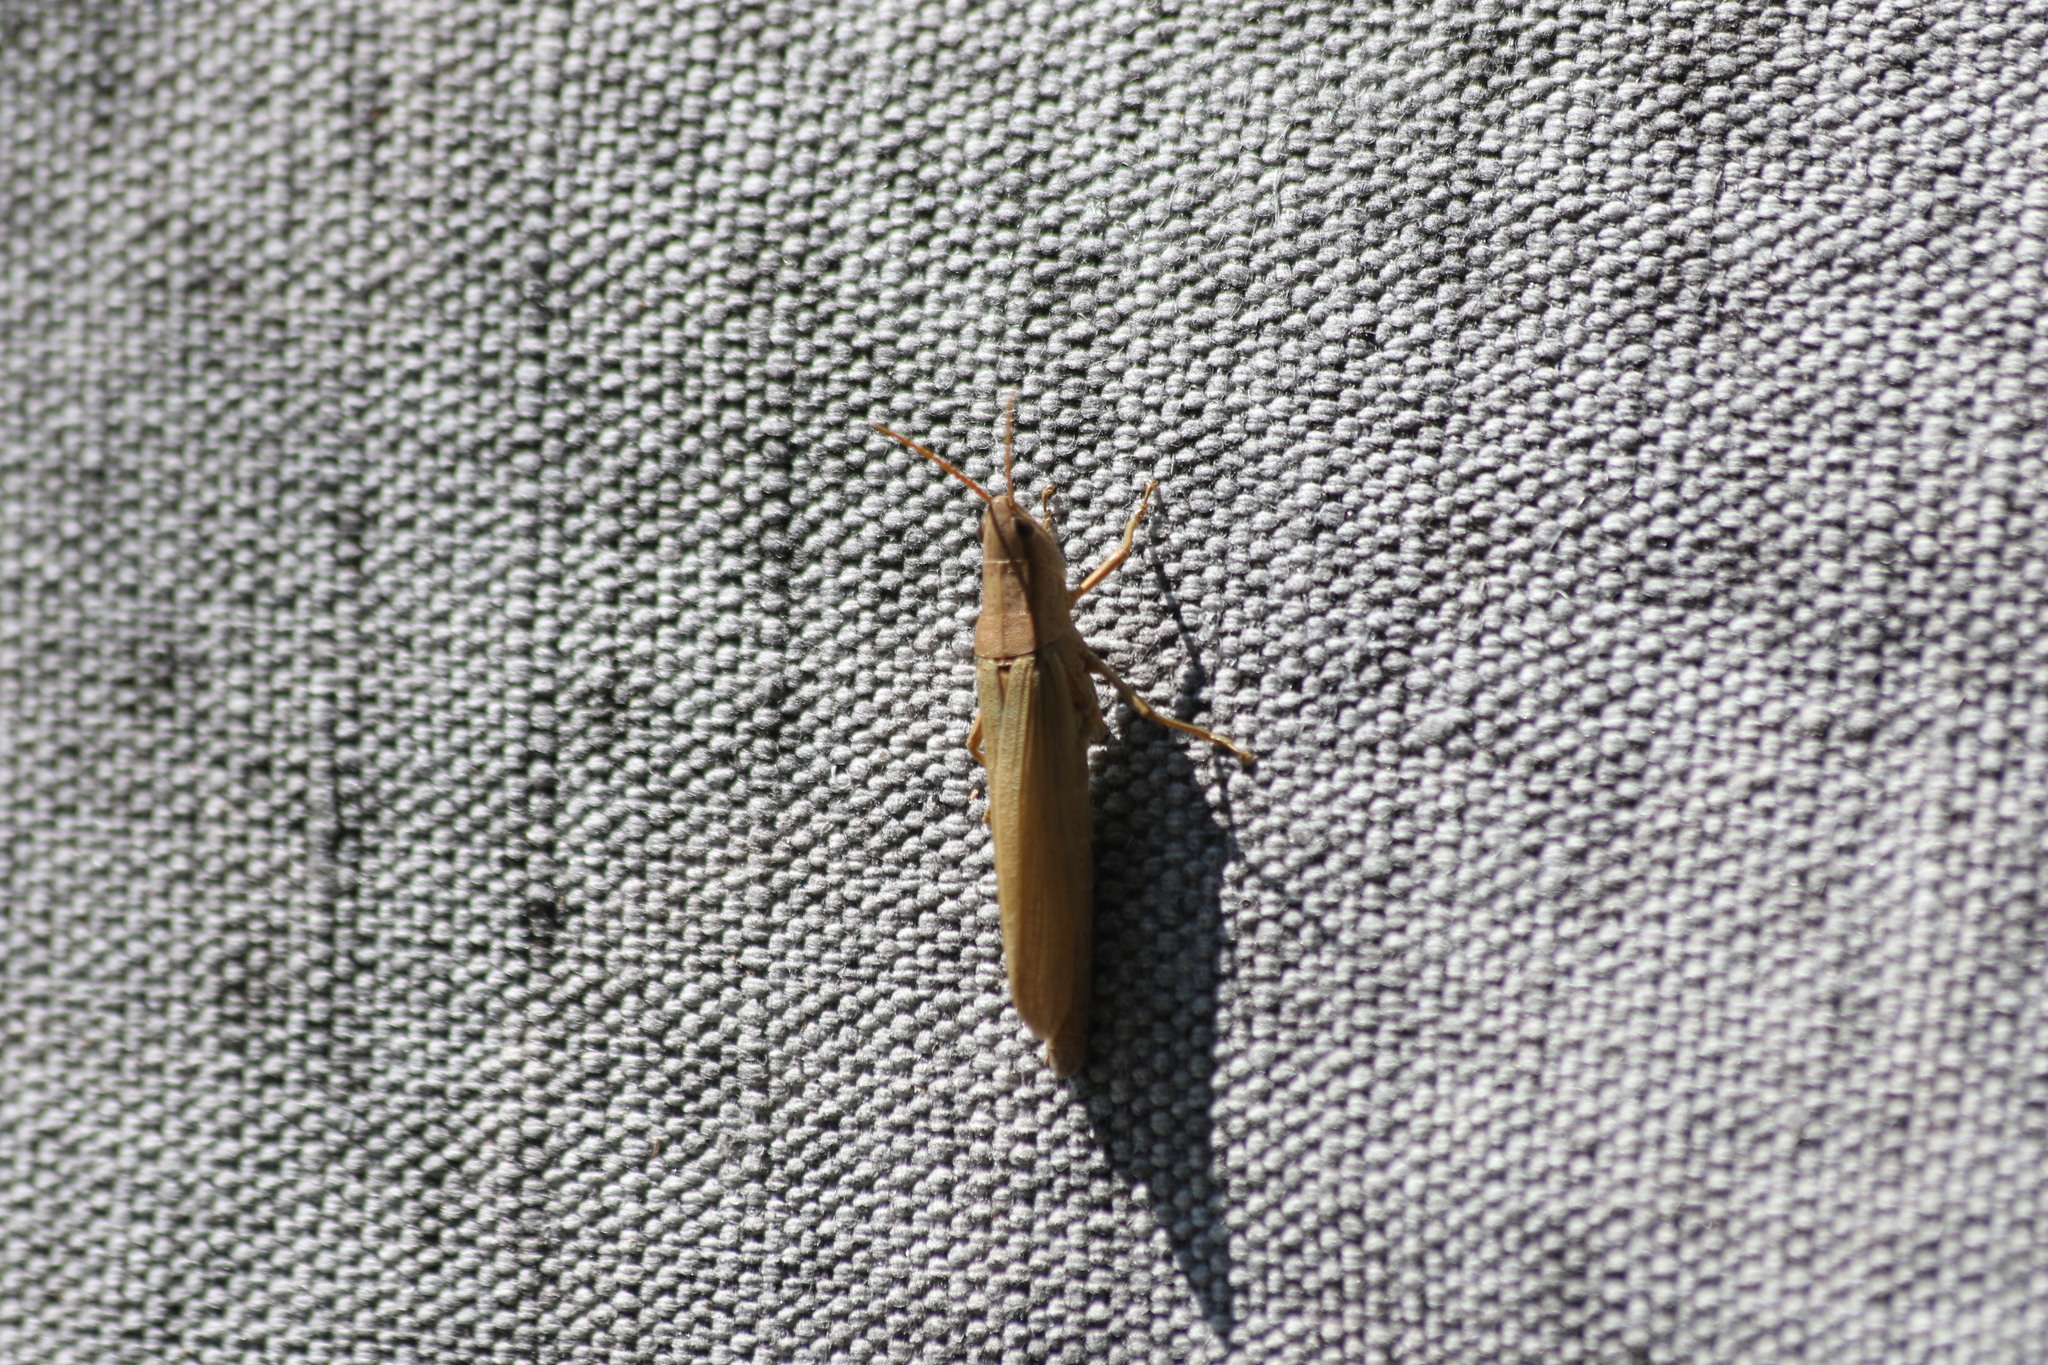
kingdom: Animalia
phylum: Arthropoda
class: Insecta
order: Orthoptera
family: Acrididae
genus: Chrysochraon
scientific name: Chrysochraon dispar
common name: Large gold grasshopper
